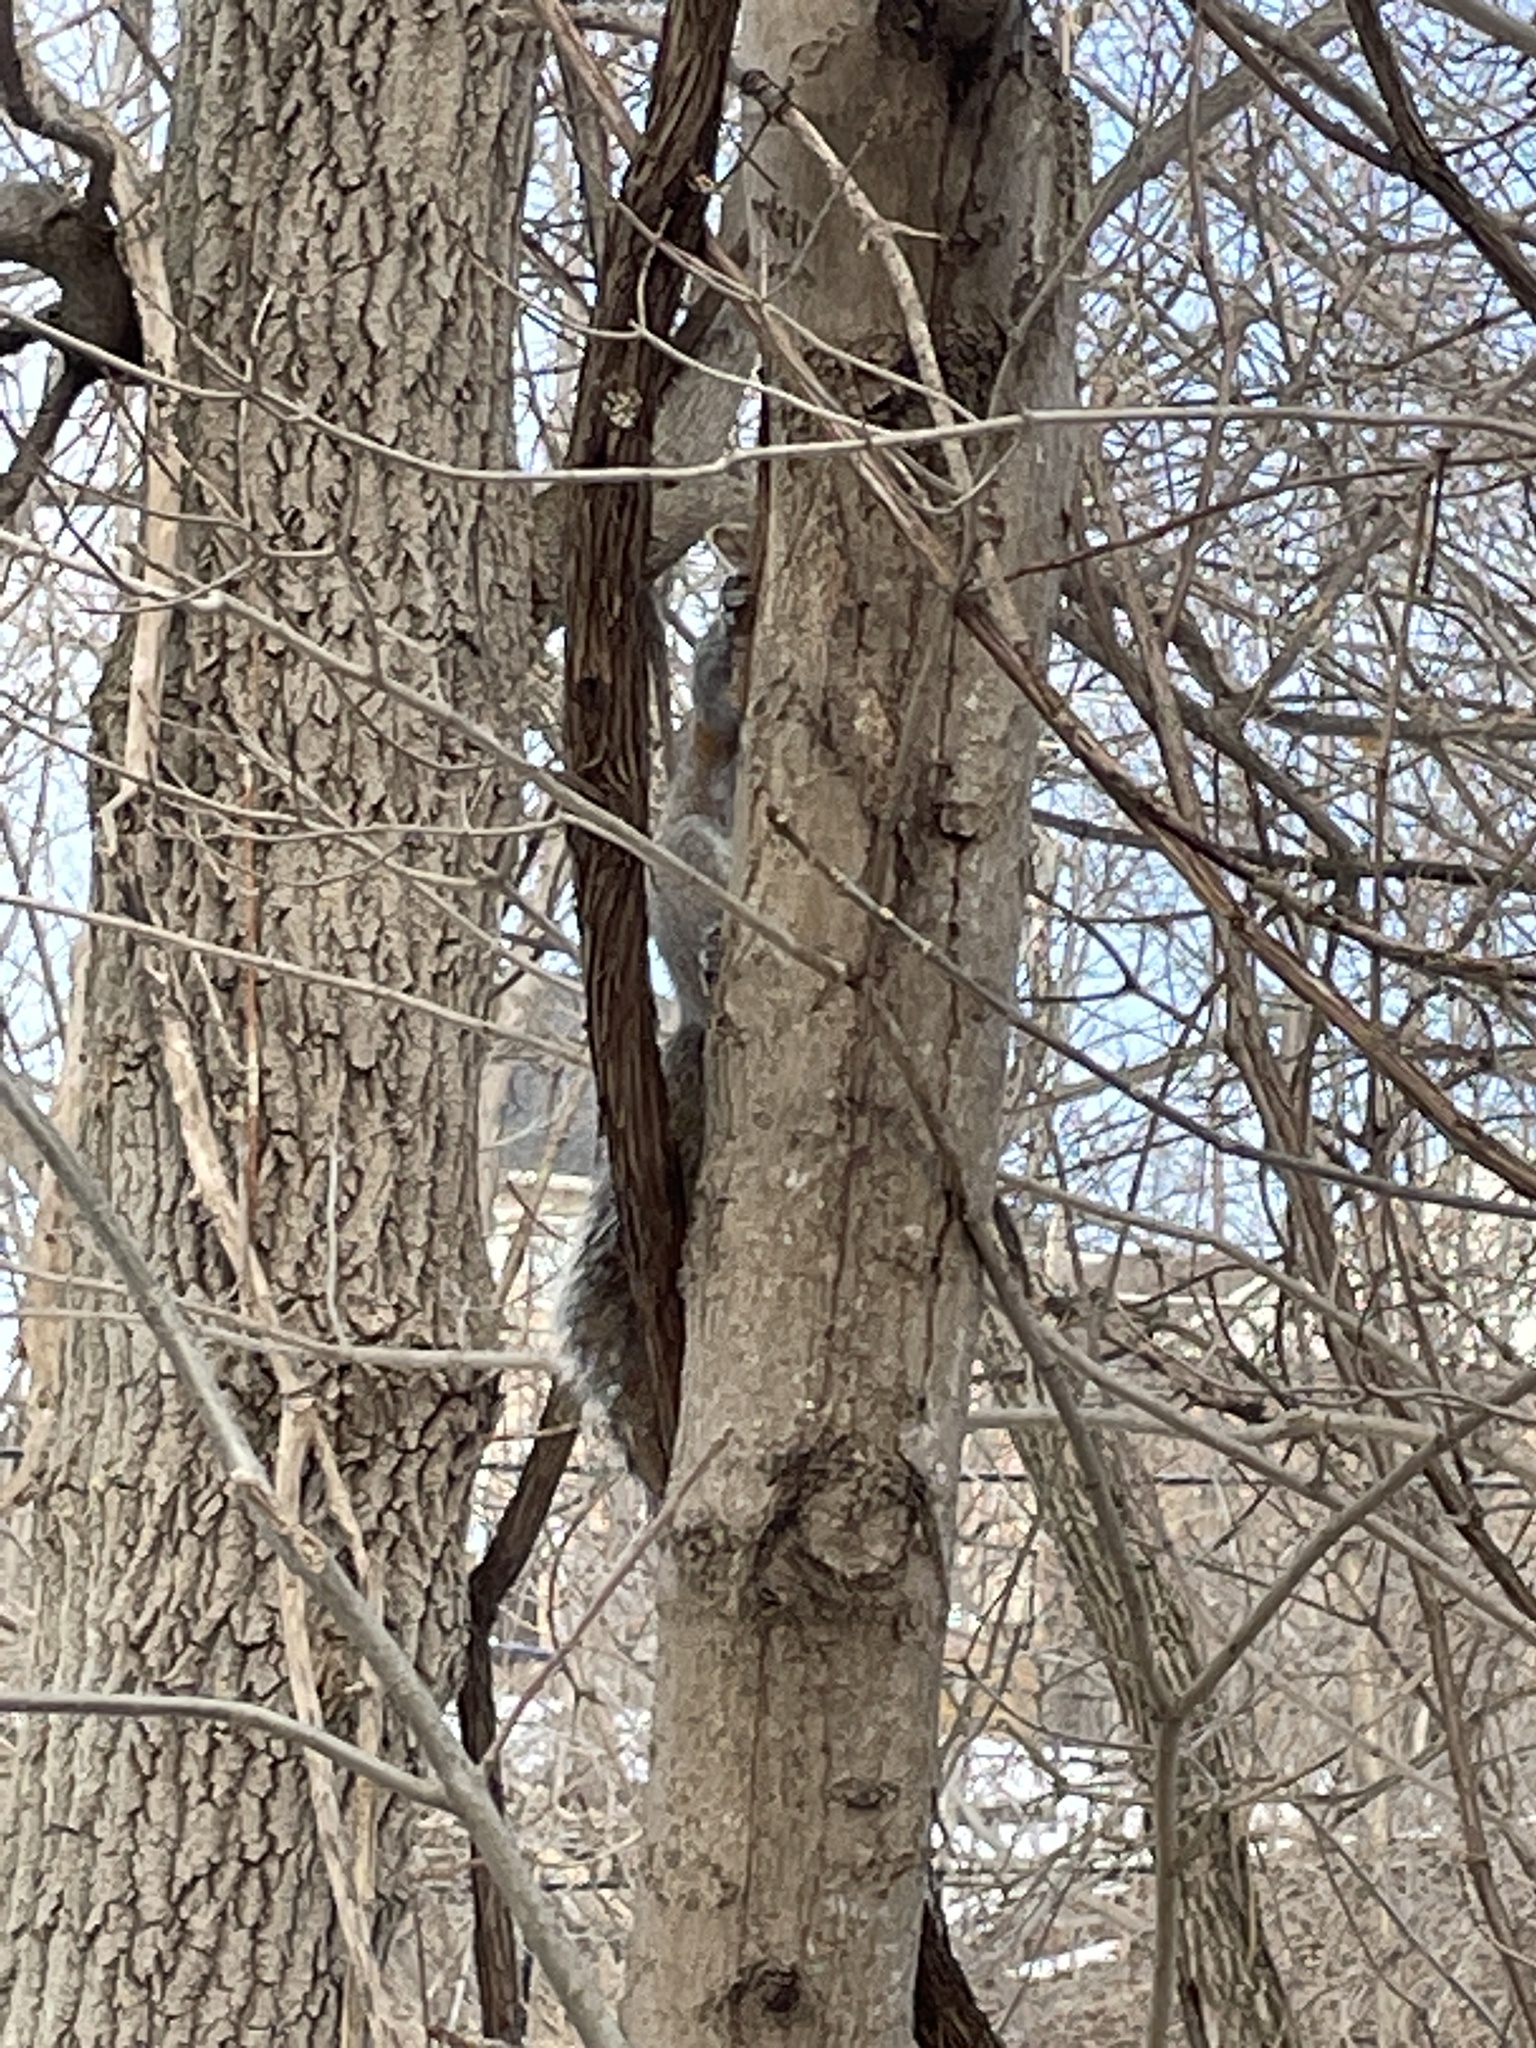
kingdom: Animalia
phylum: Chordata
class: Mammalia
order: Rodentia
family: Sciuridae
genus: Sciurus
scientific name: Sciurus carolinensis
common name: Eastern gray squirrel
